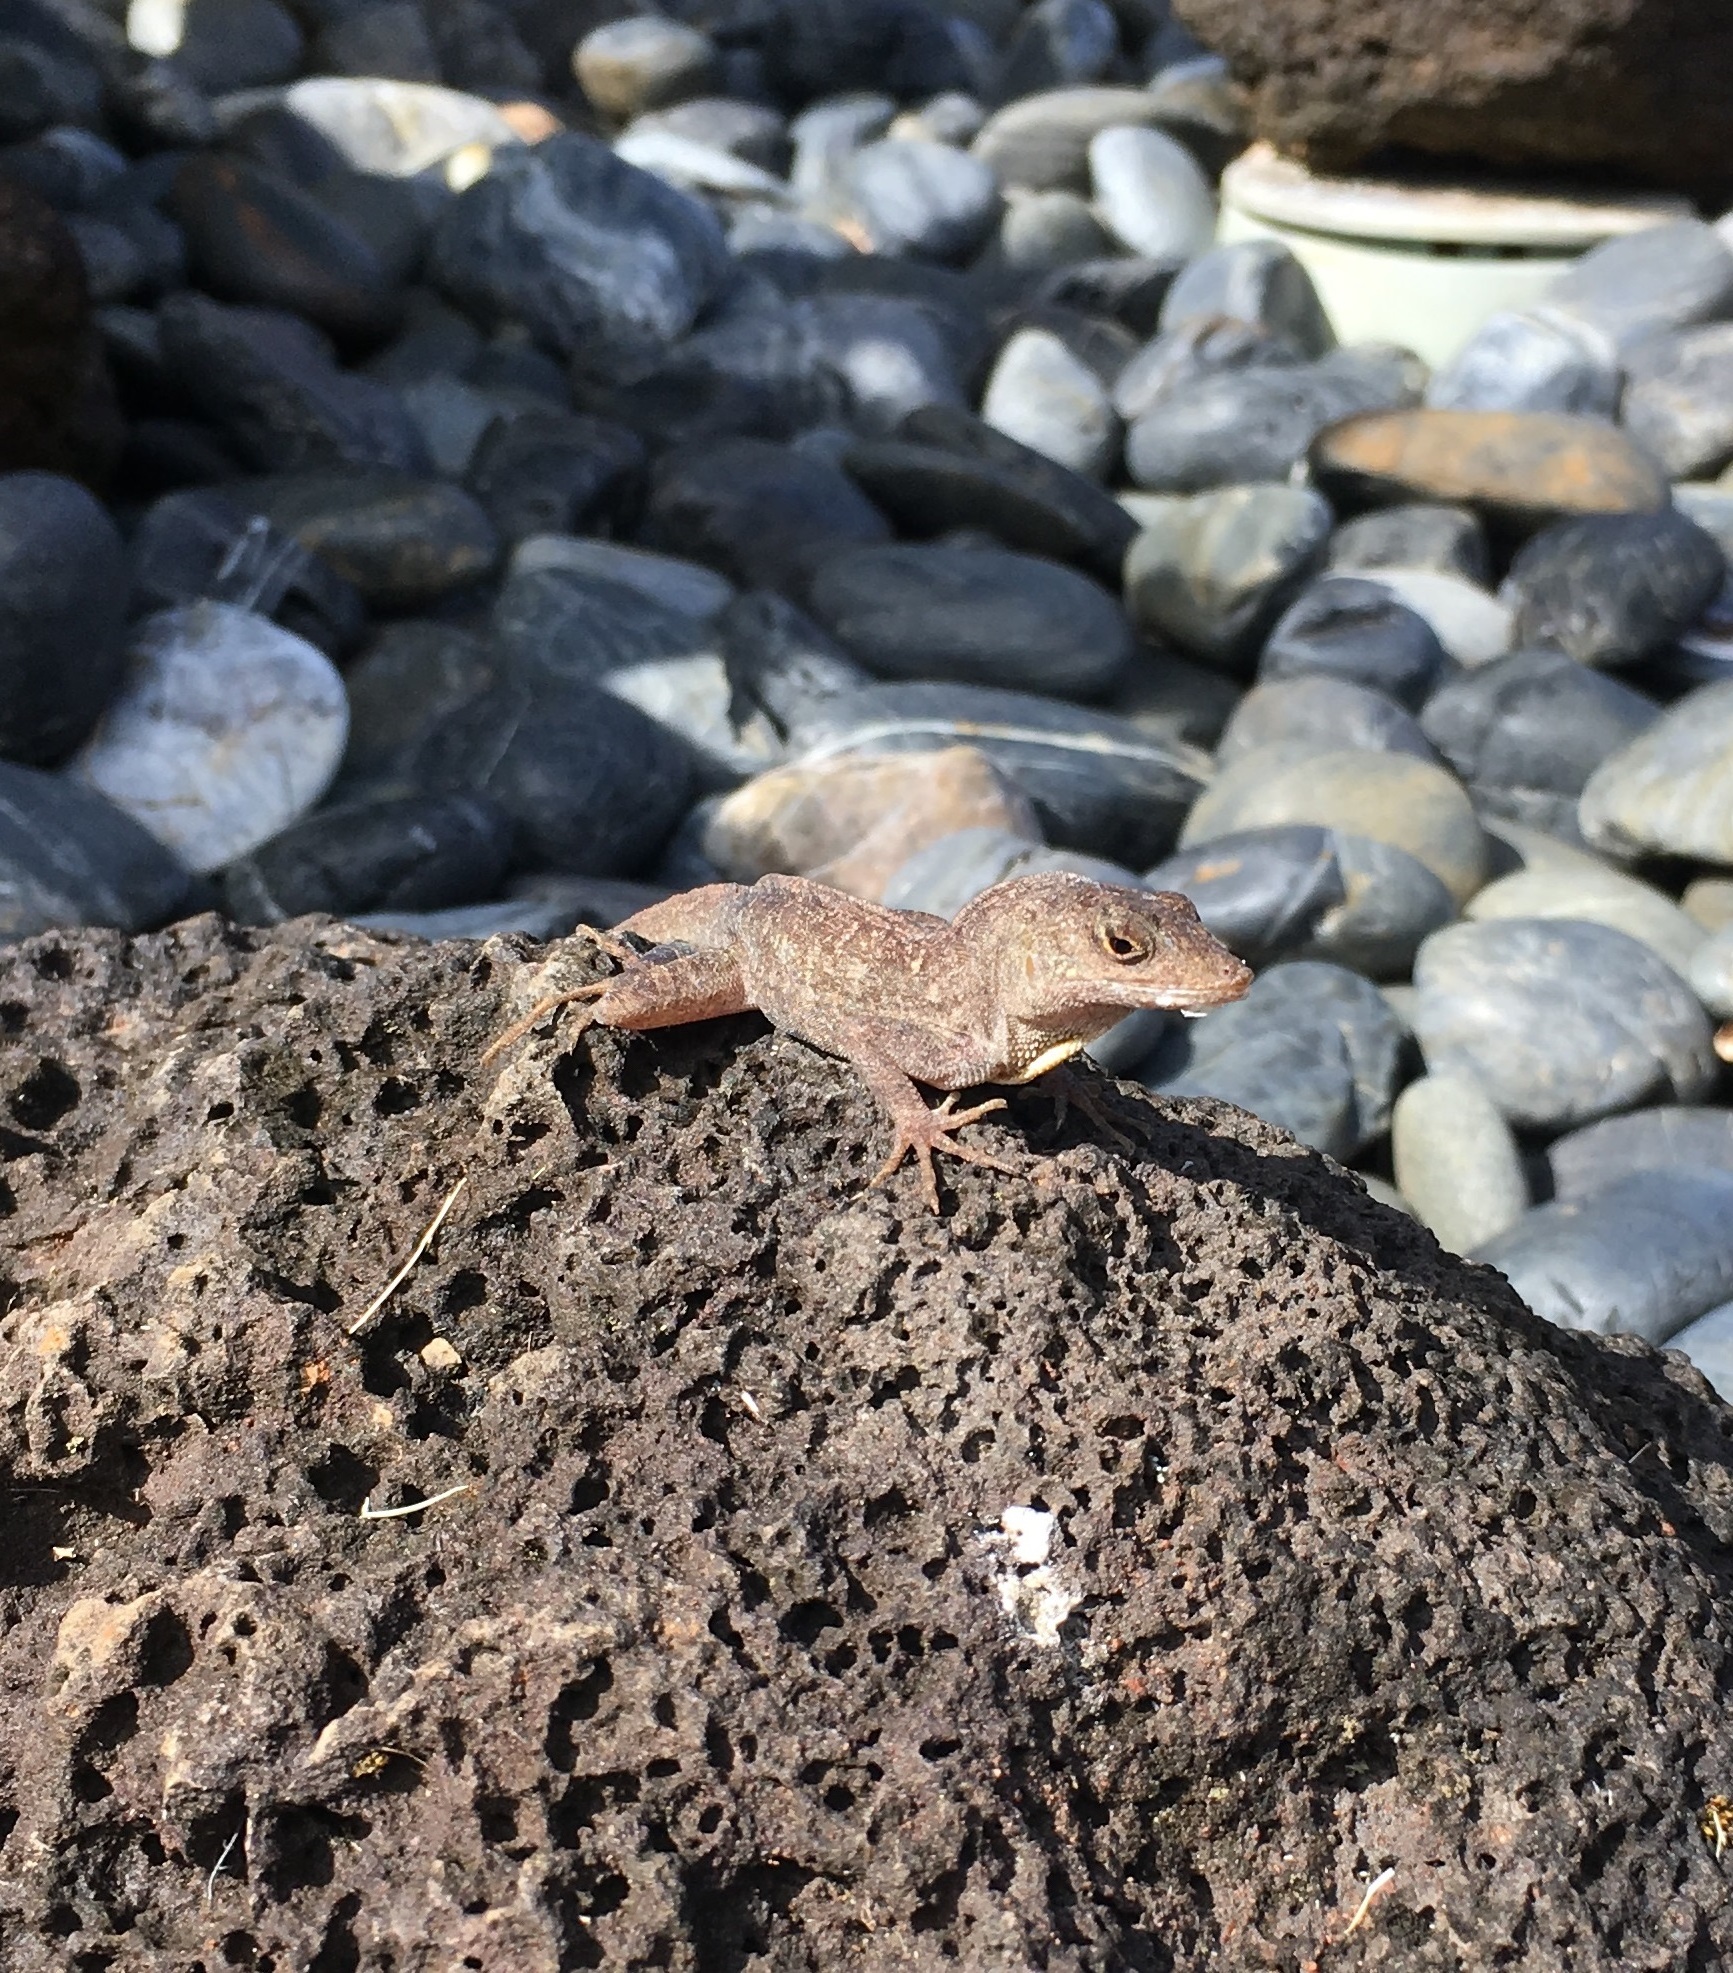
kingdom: Animalia
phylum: Chordata
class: Squamata
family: Dactyloidae
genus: Anolis
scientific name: Anolis sagrei
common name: Brown anole
